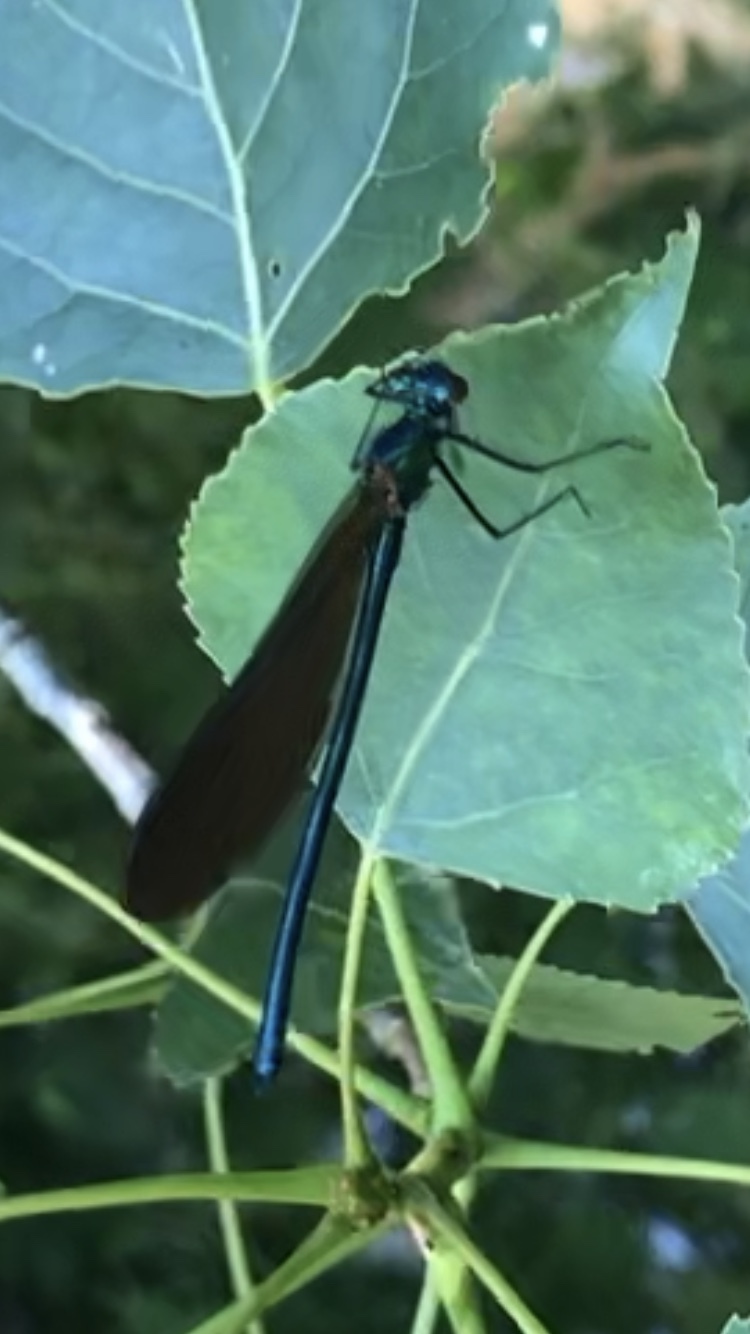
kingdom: Animalia
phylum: Arthropoda
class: Insecta
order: Odonata
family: Calopterygidae
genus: Calopteryx
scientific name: Calopteryx virgo
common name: Beautiful demoiselle
